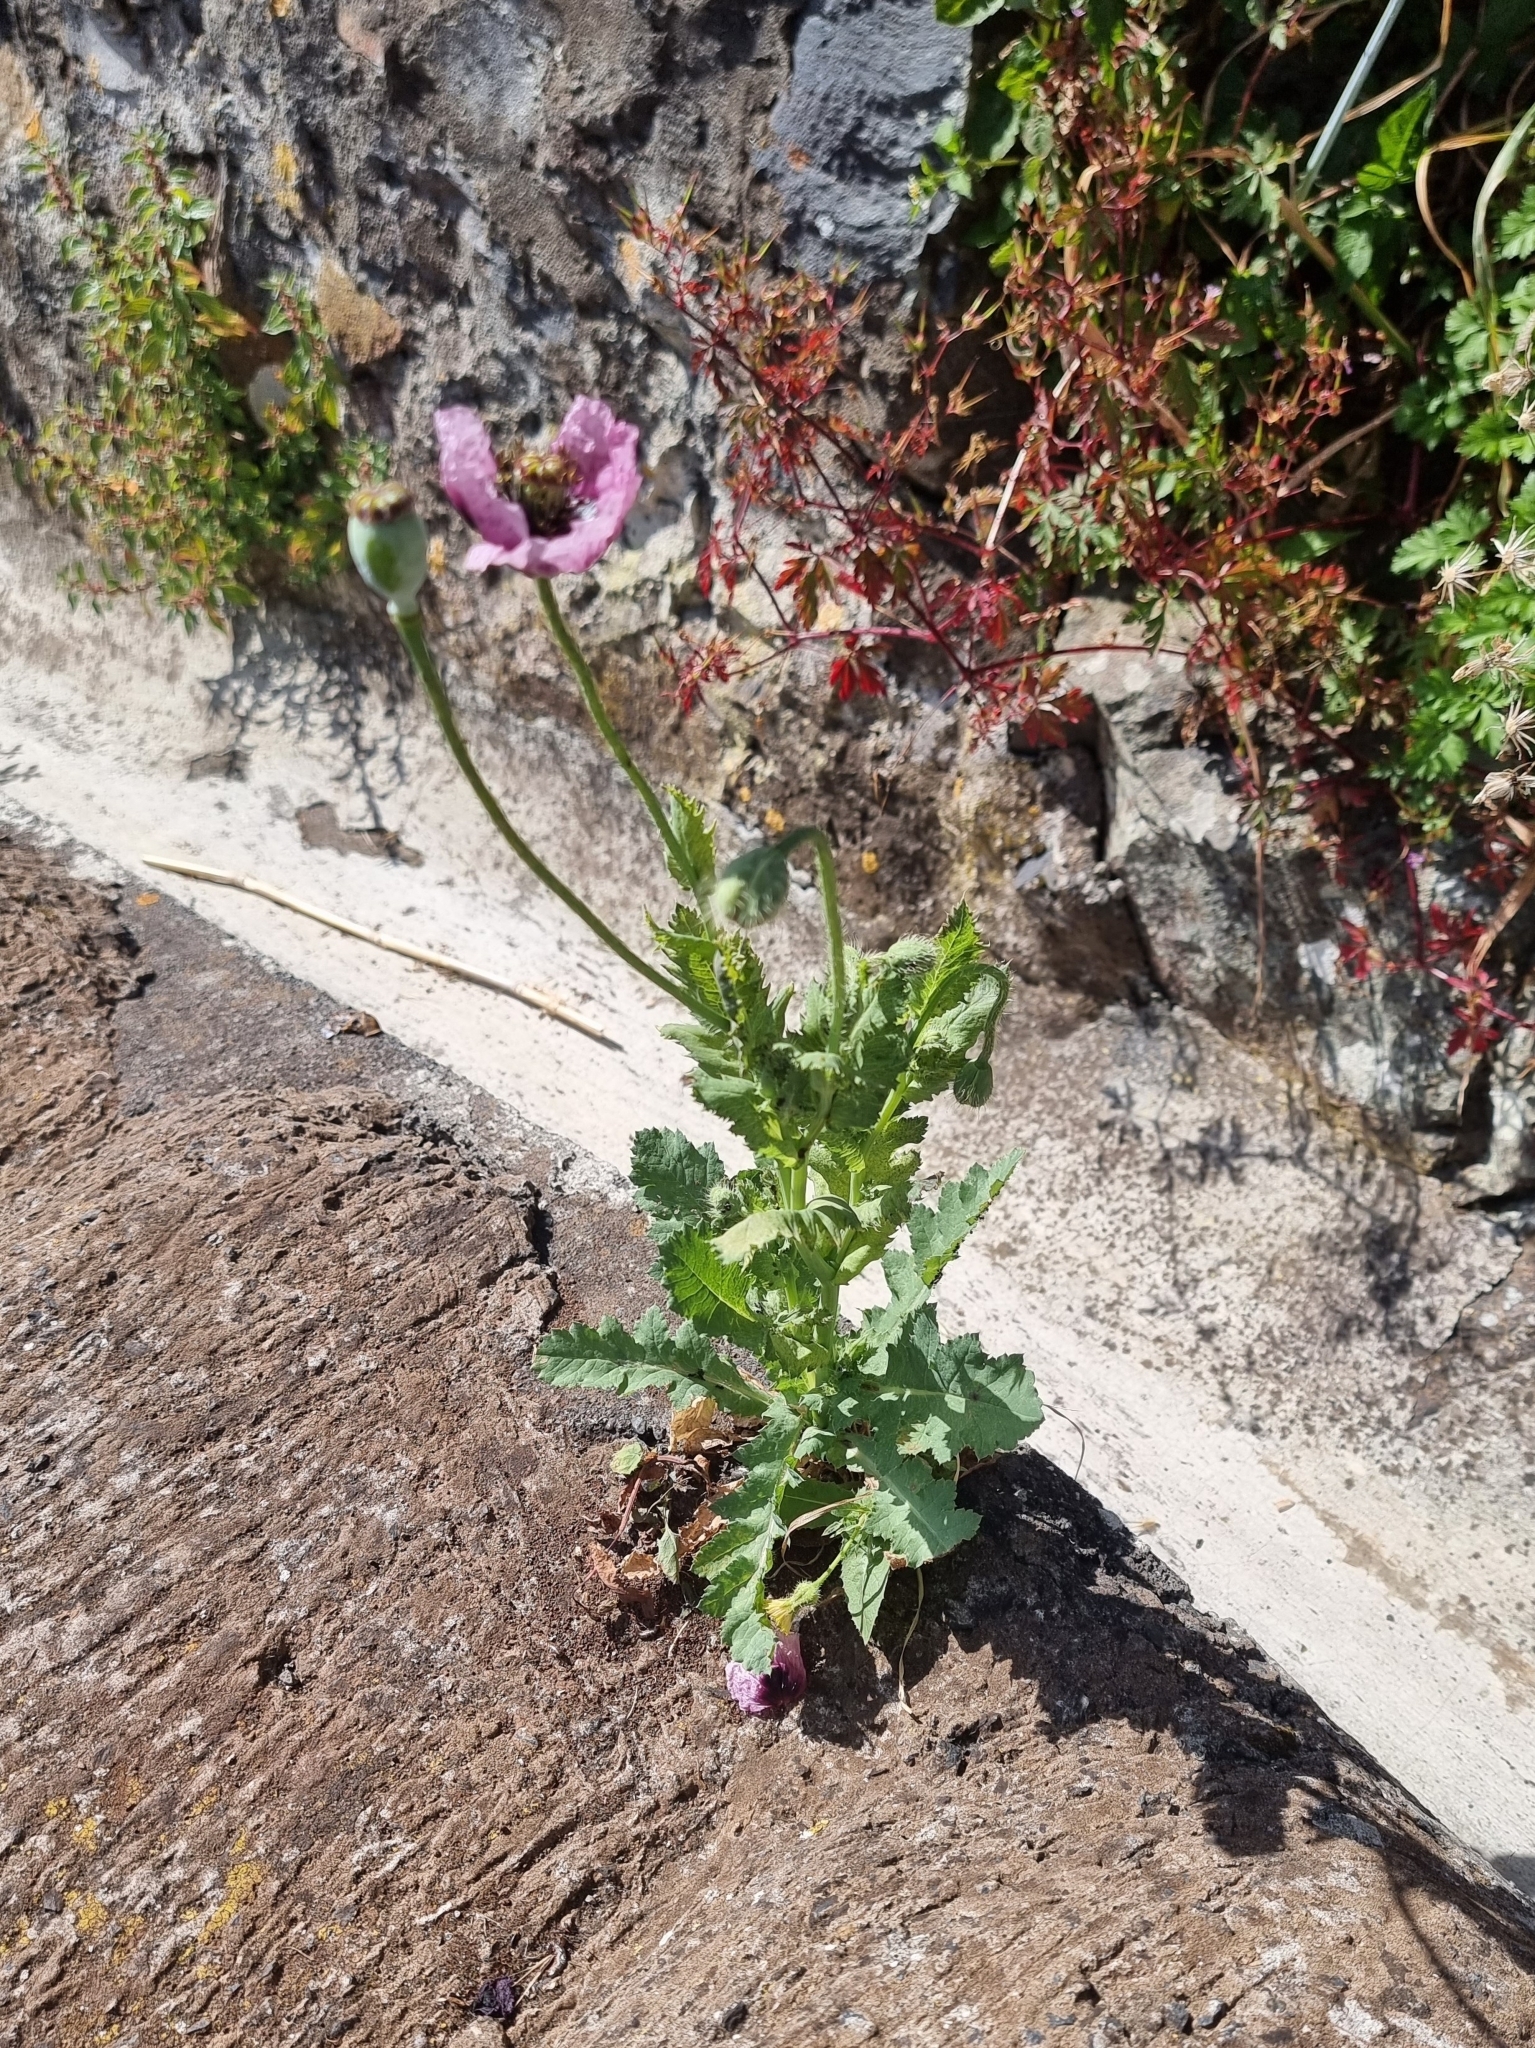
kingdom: Plantae
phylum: Tracheophyta
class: Magnoliopsida
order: Ranunculales
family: Papaveraceae
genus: Papaver
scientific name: Papaver somniferum
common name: Opium poppy
